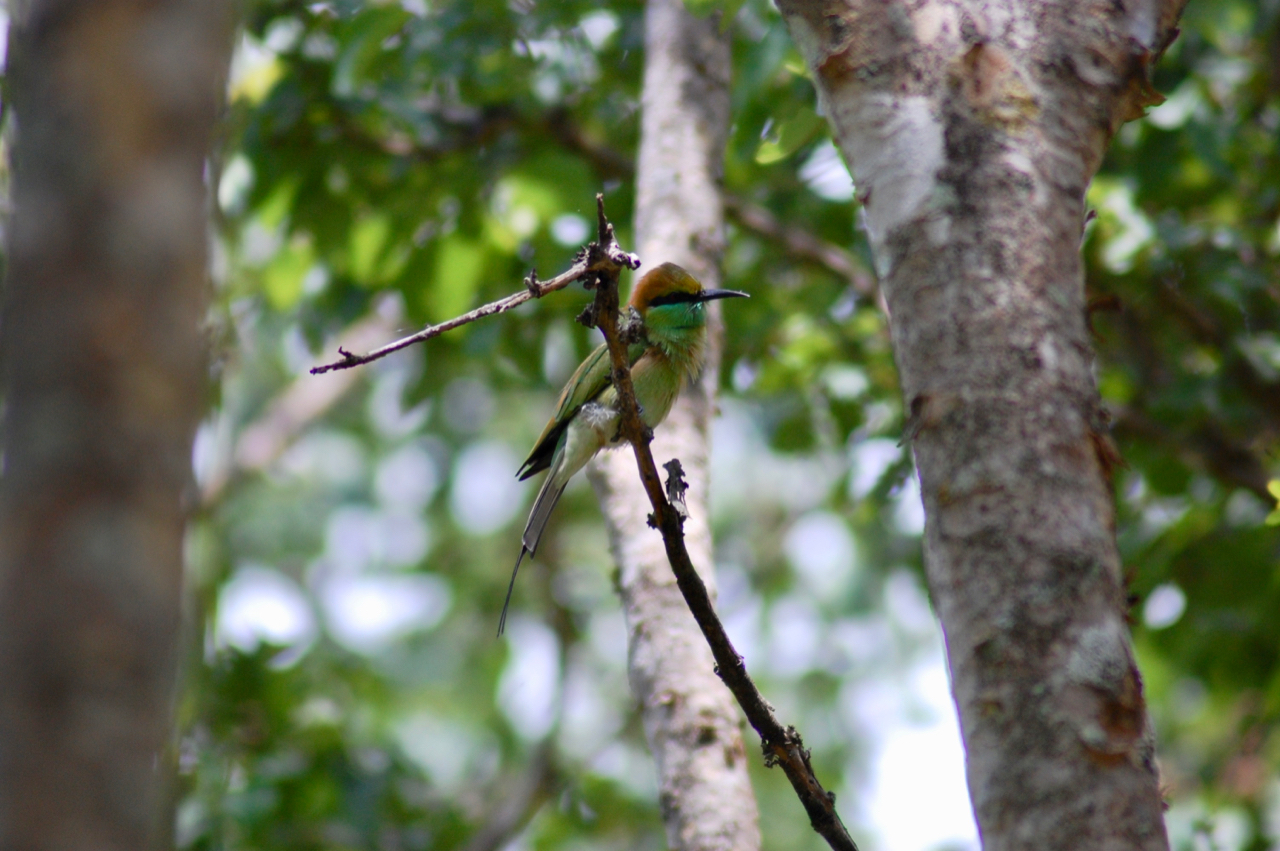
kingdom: Animalia
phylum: Chordata
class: Aves
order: Coraciiformes
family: Meropidae
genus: Merops
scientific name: Merops orientalis
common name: Green bee-eater
